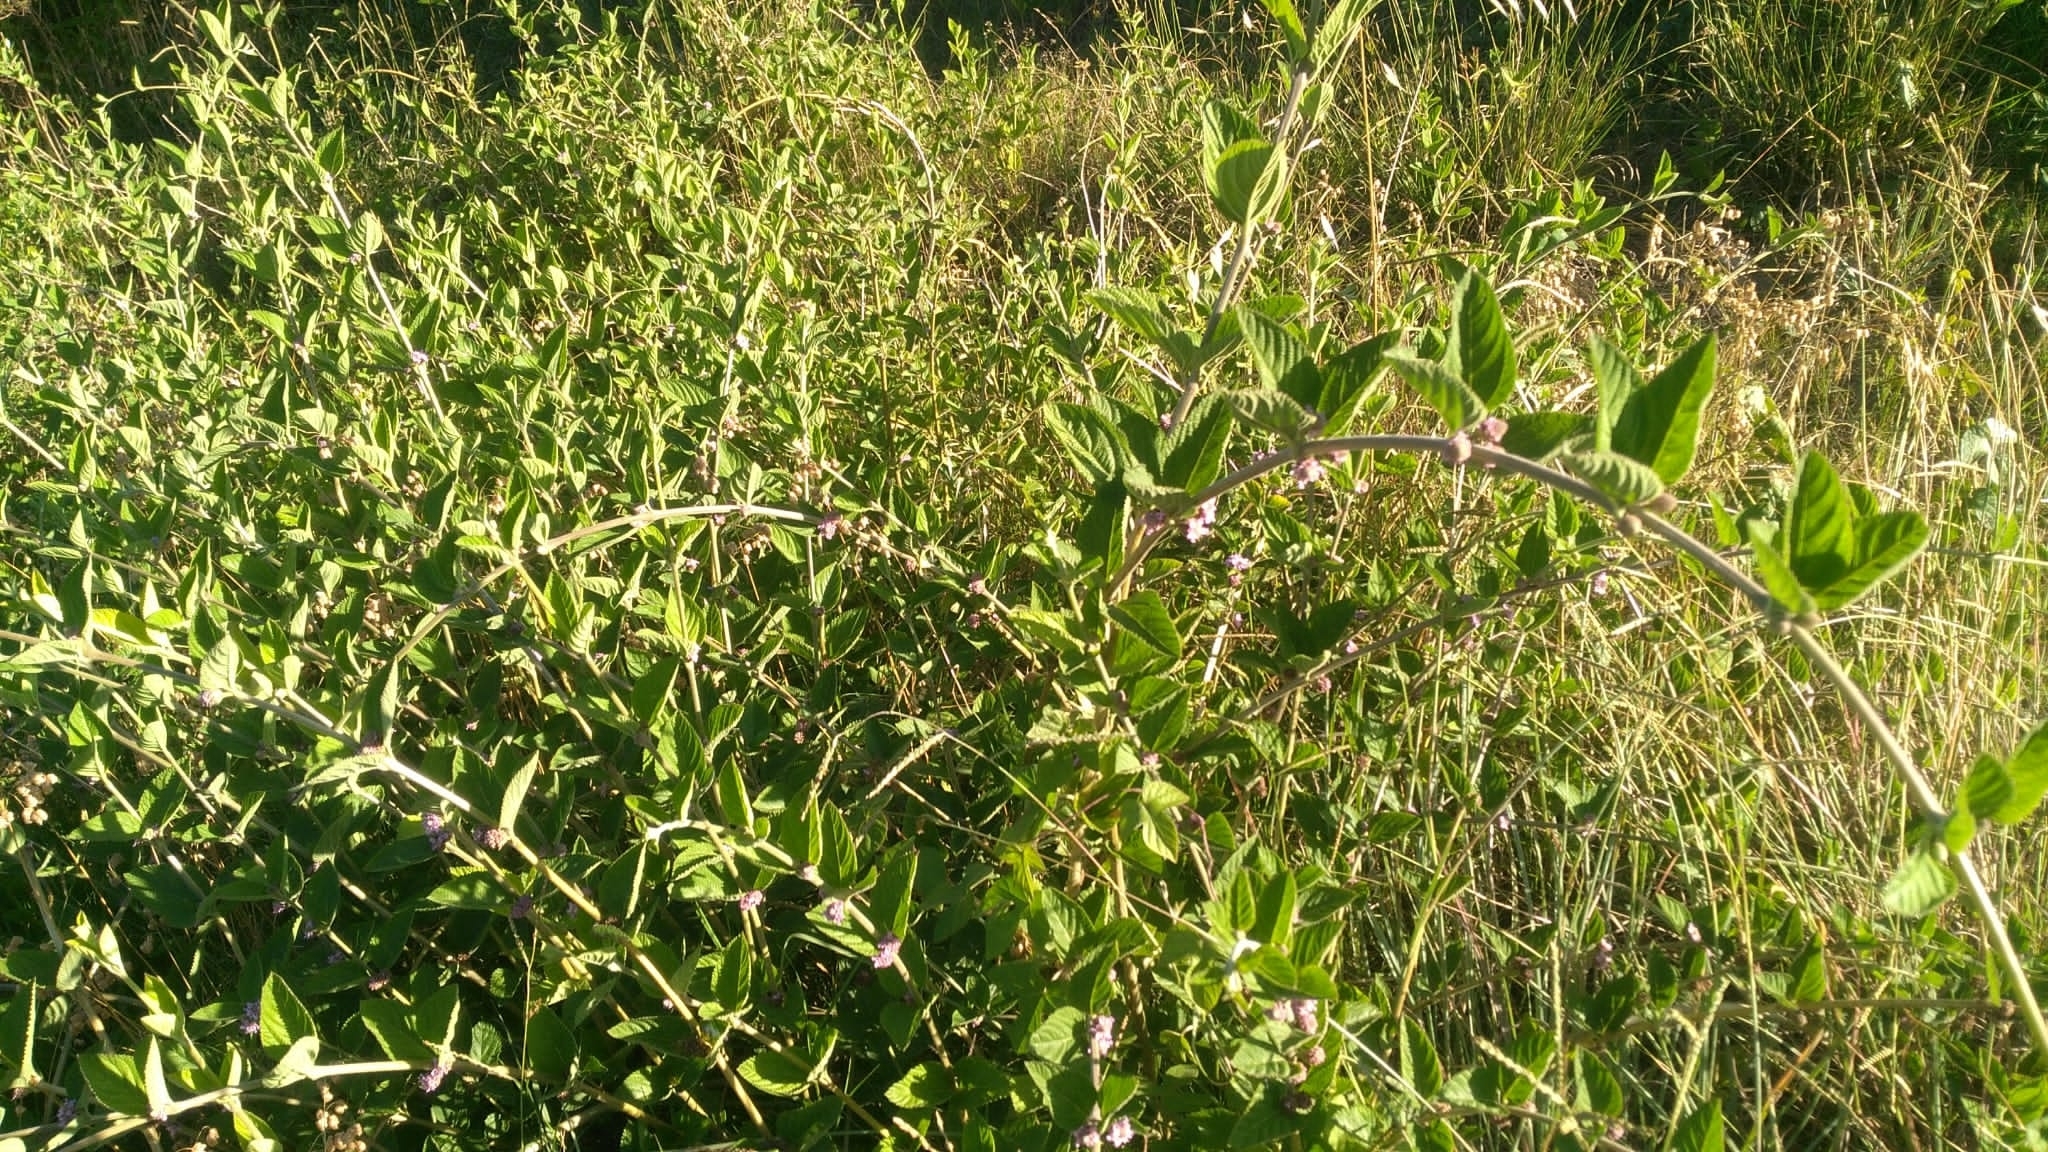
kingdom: Plantae
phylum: Tracheophyta
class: Magnoliopsida
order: Lamiales
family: Verbenaceae
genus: Lippia
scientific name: Lippia alba
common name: Bushy matgrass
